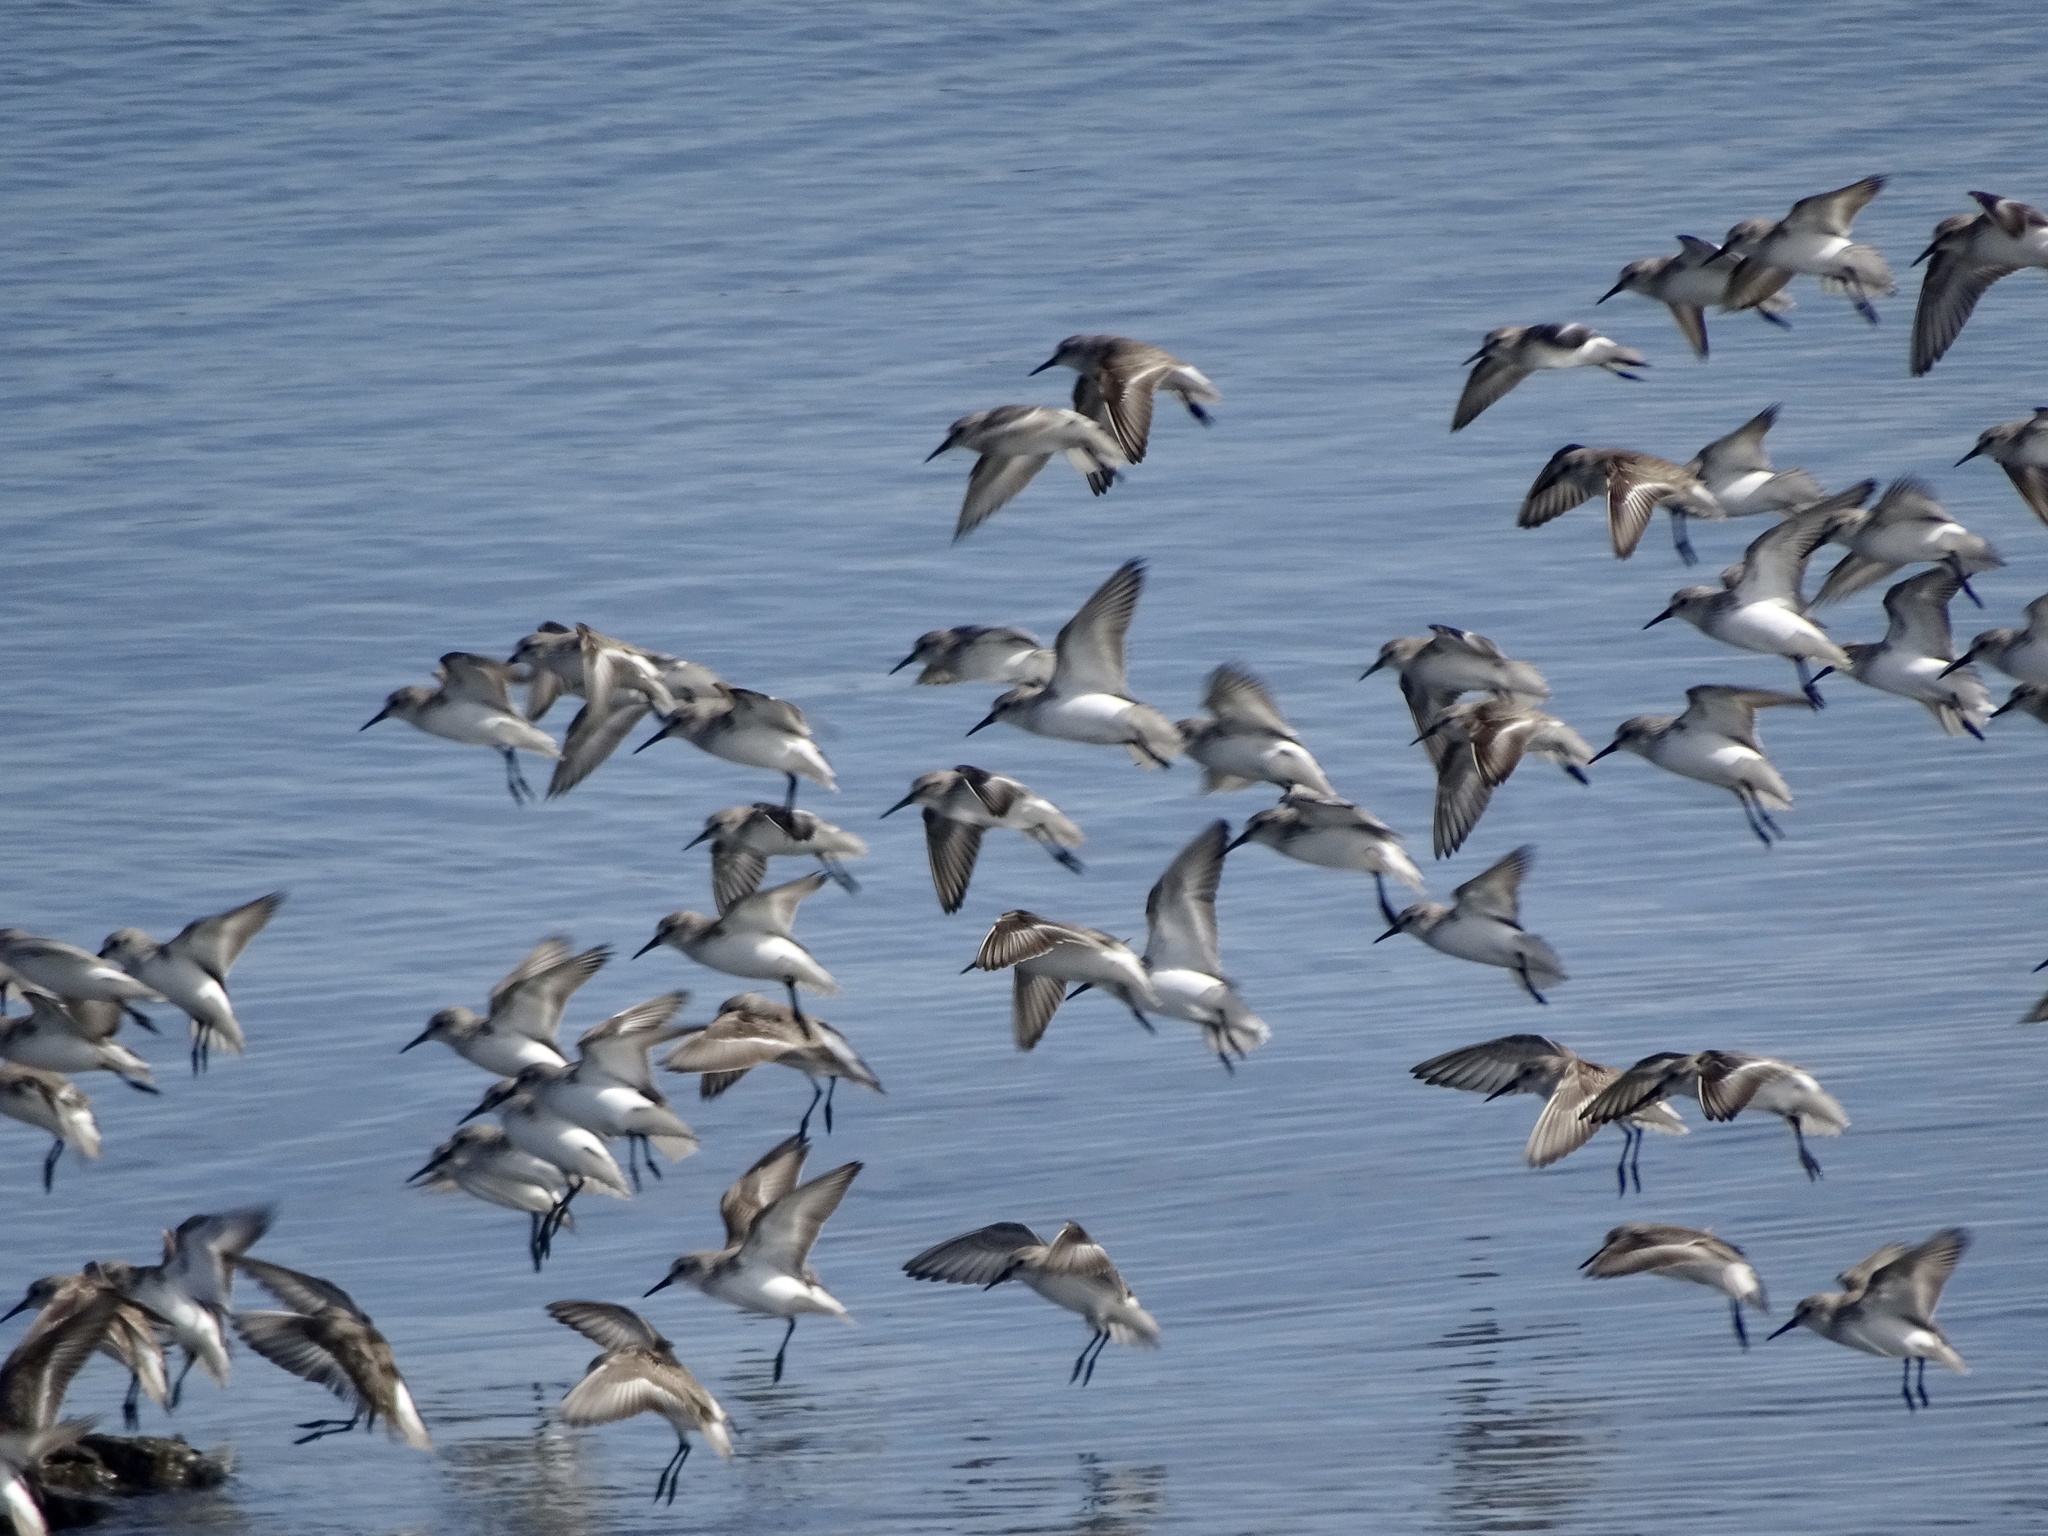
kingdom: Animalia
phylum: Chordata
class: Aves
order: Charadriiformes
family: Scolopacidae
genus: Calidris
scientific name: Calidris mauri
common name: Western sandpiper
